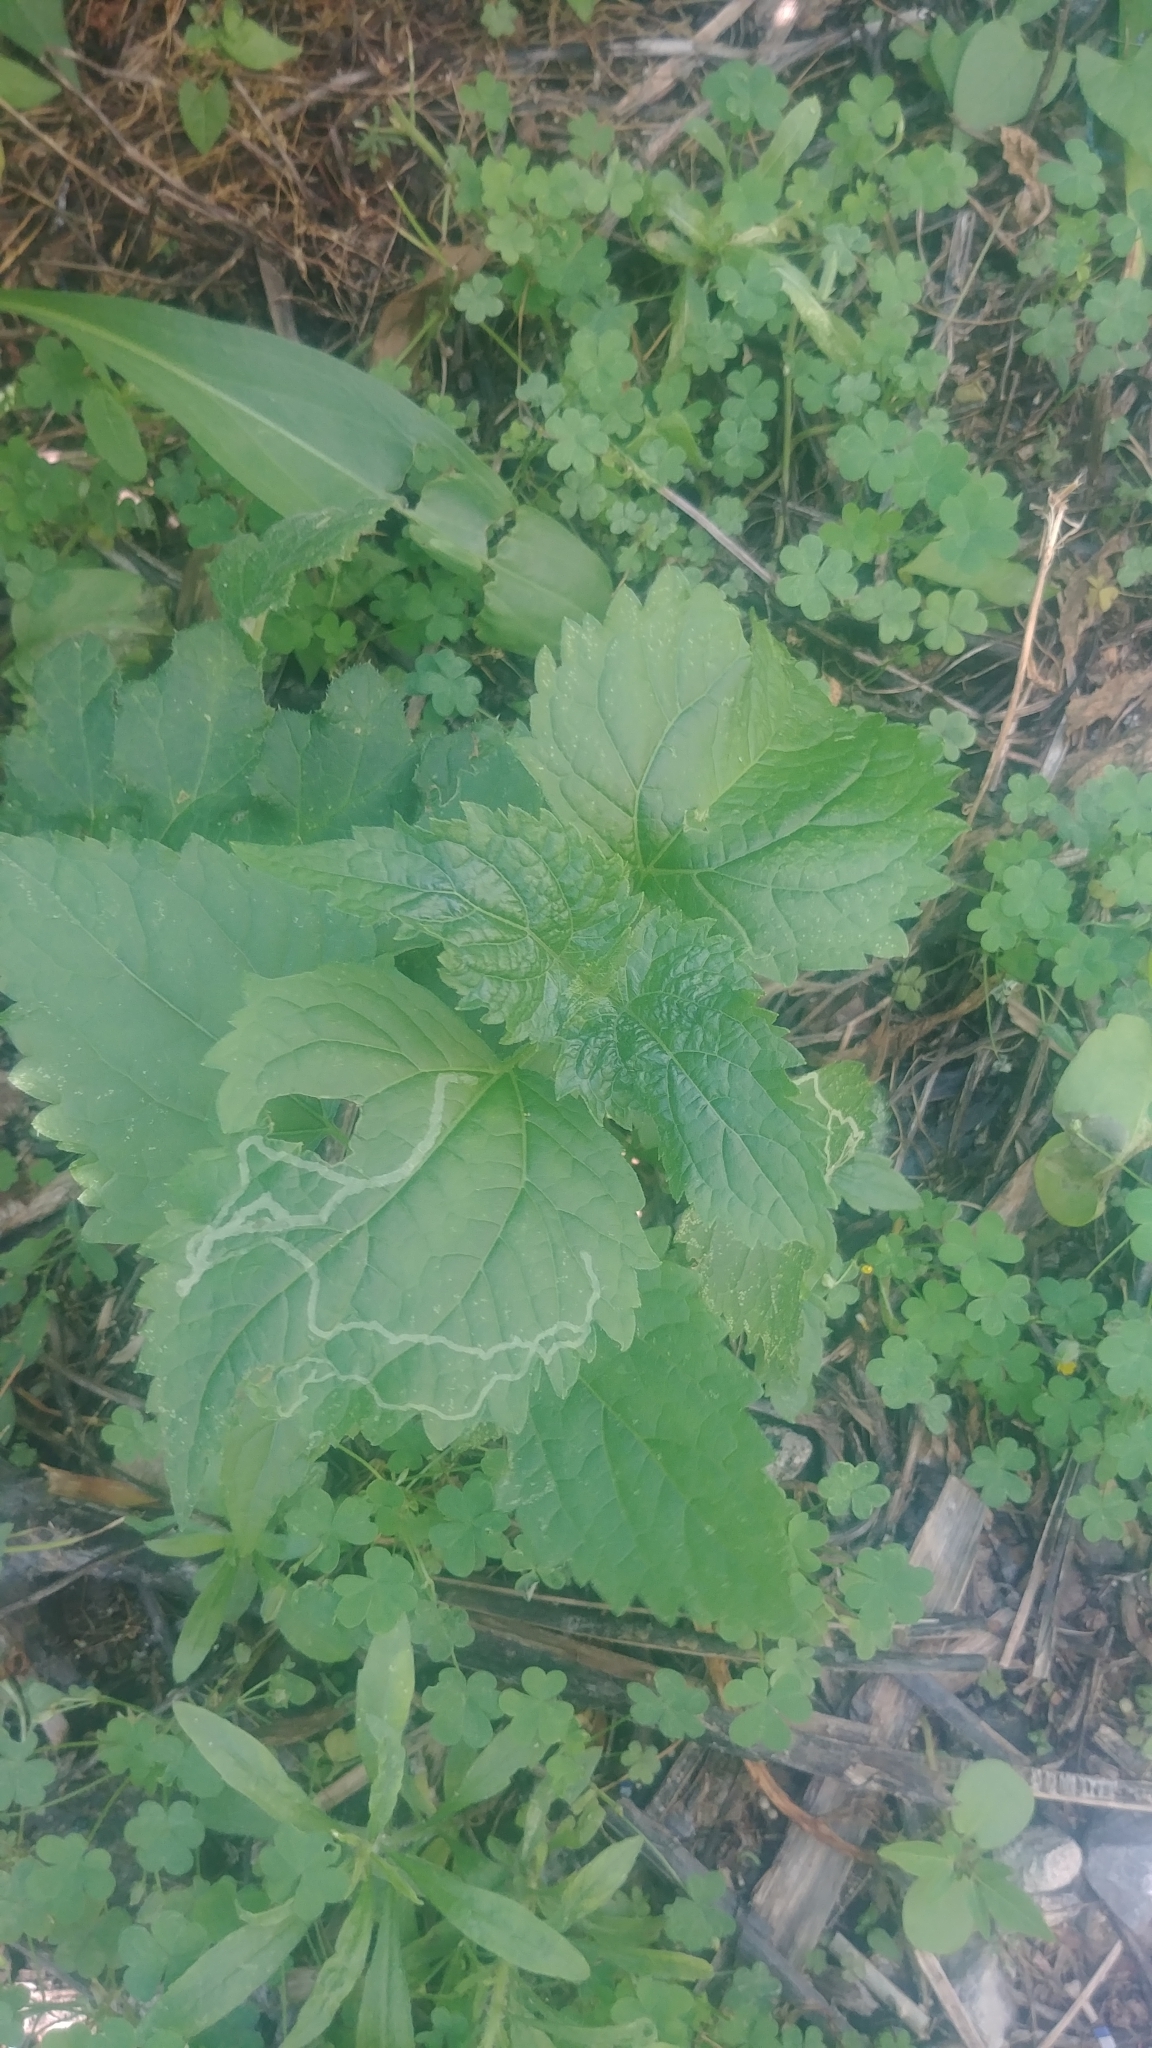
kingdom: Plantae
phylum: Tracheophyta
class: Magnoliopsida
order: Asterales
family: Asteraceae
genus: Ageratina
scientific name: Ageratina altissima
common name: White snakeroot
